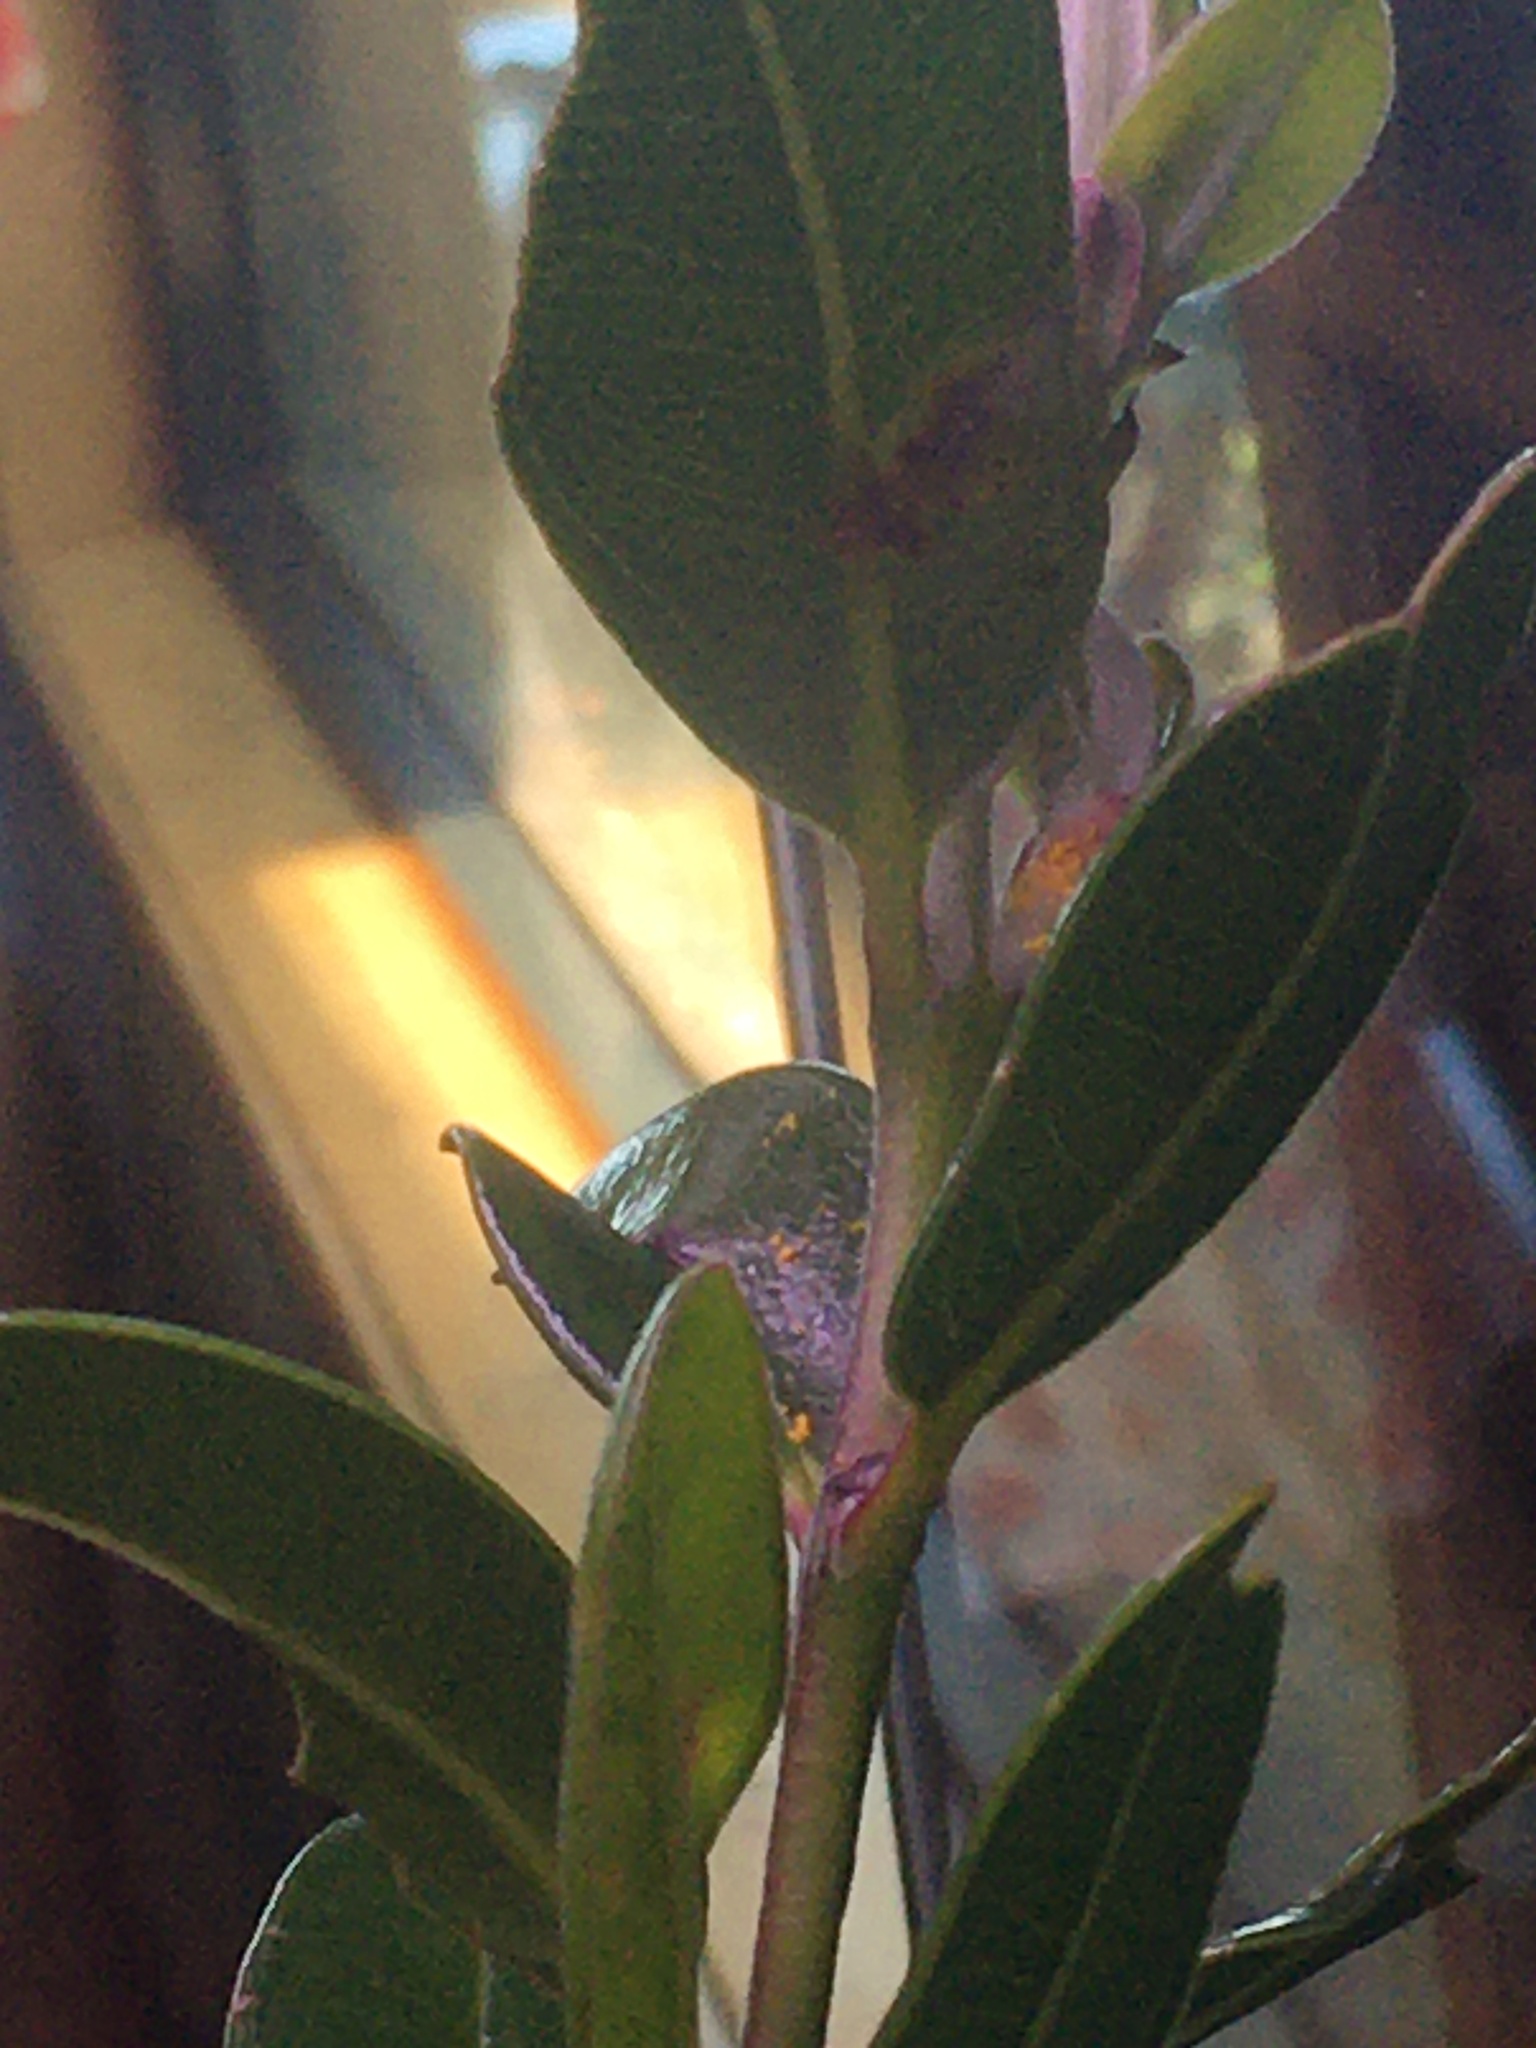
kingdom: Fungi
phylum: Basidiomycota
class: Pucciniomycetes
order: Pucciniales
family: Sphaerophragmiaceae
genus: Austropuccinia
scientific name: Austropuccinia psidii
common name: Myrtle rust
